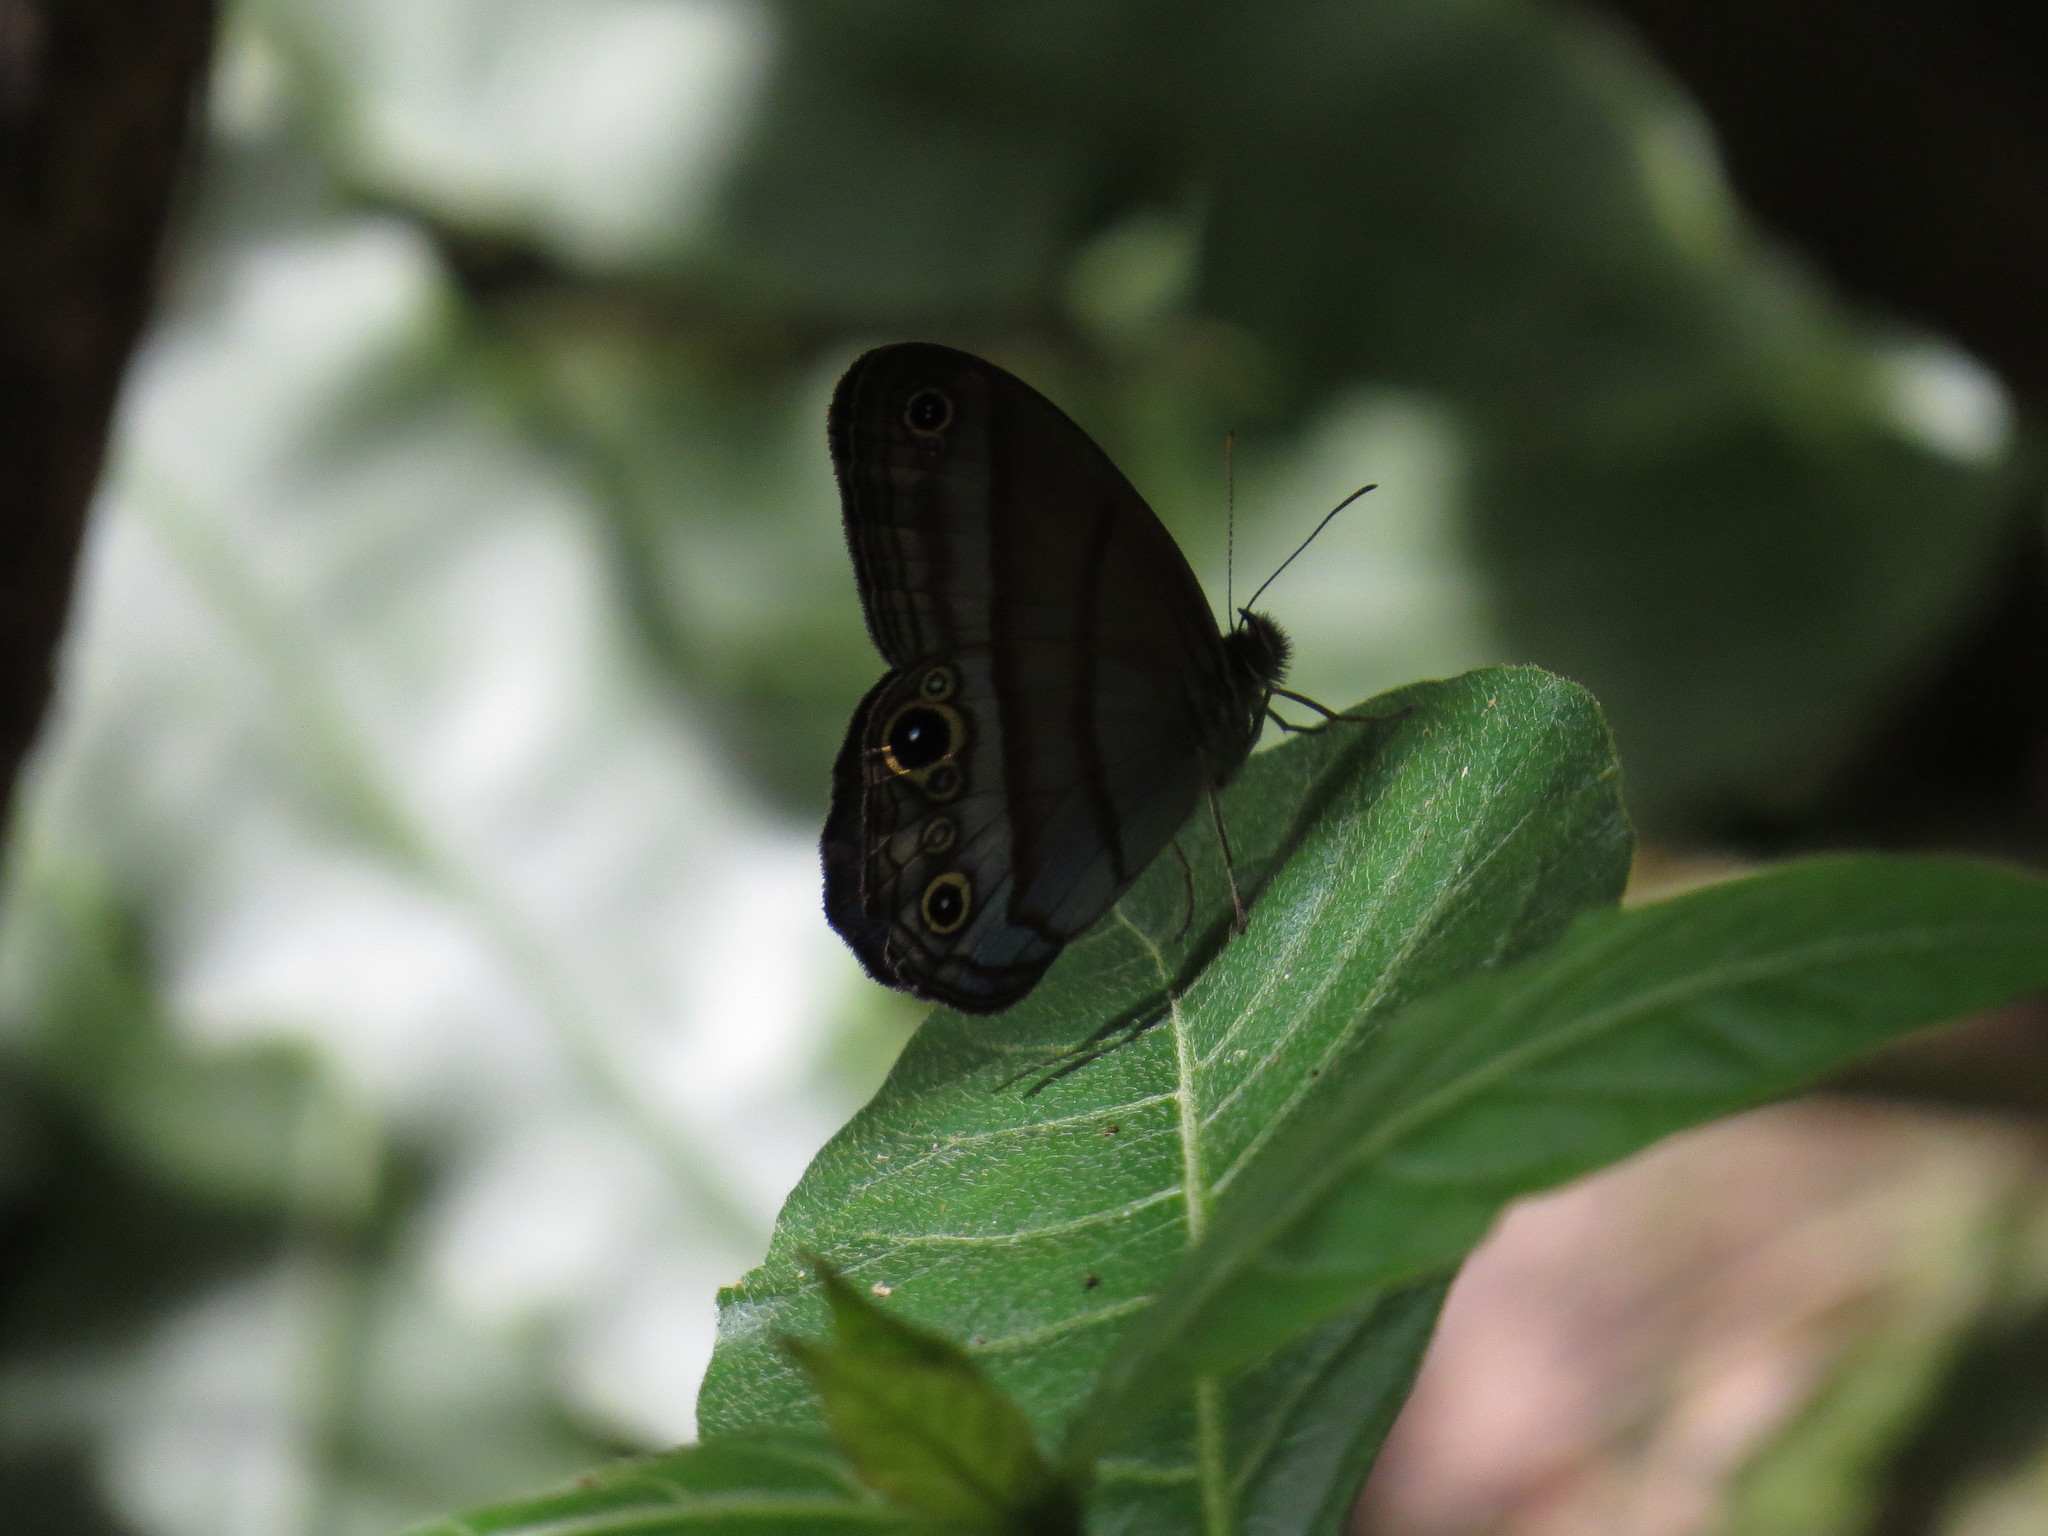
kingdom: Animalia
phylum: Arthropoda
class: Insecta
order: Lepidoptera
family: Nymphalidae
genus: Amiga
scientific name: Amiga arnaca
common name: Blue-topped satyr
